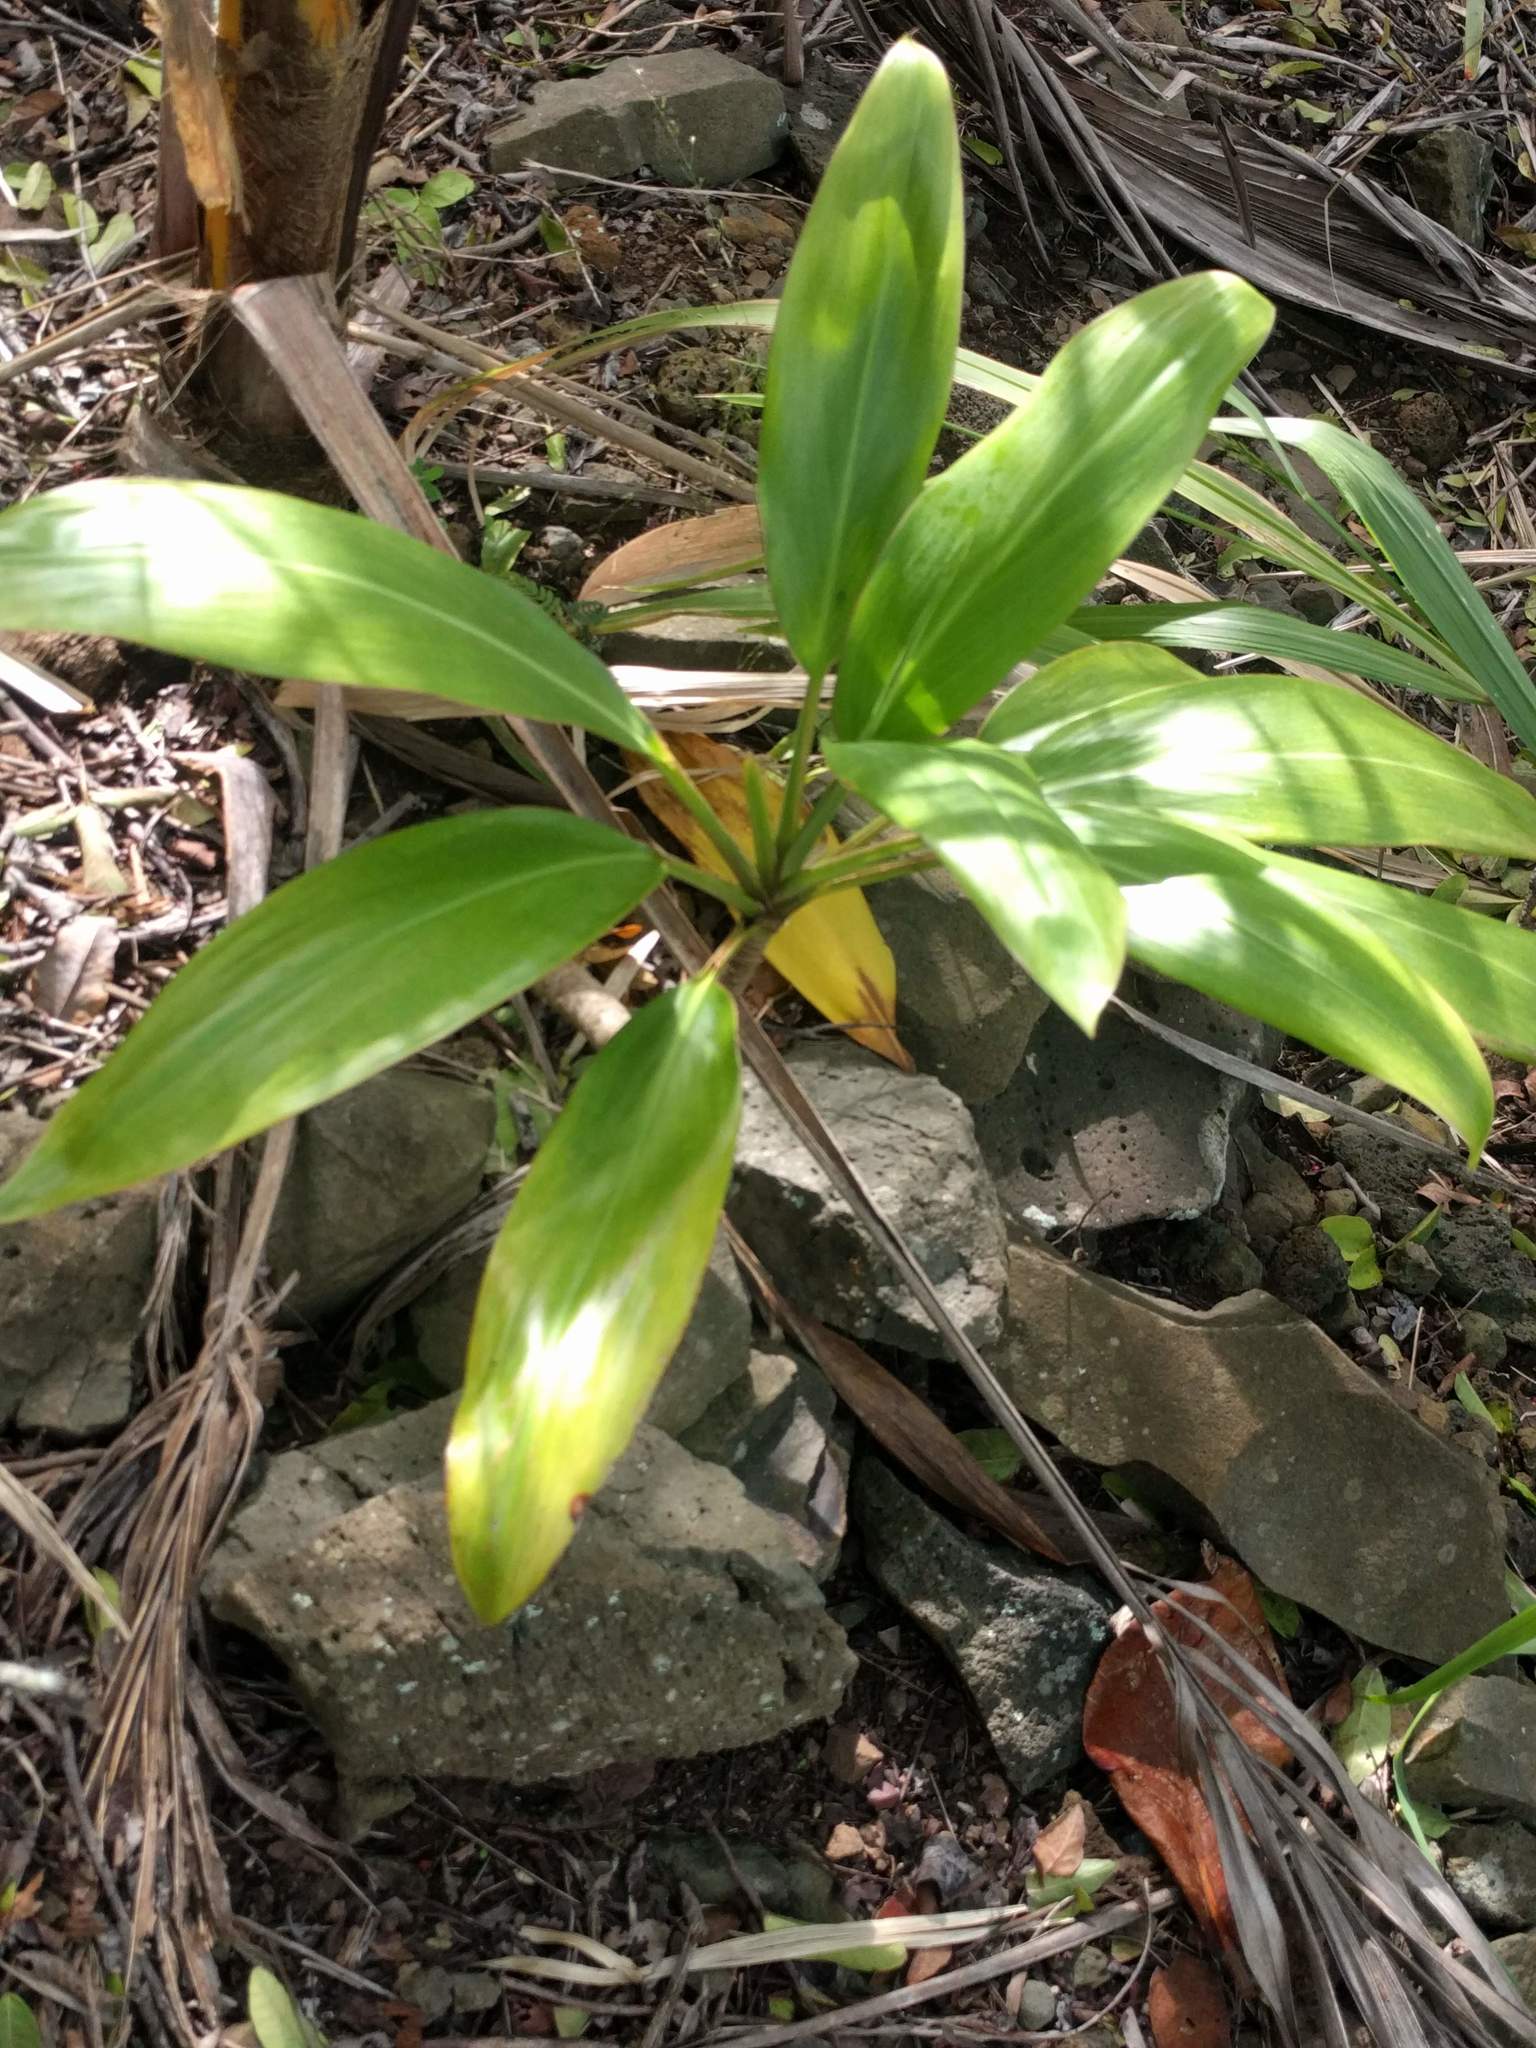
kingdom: Plantae
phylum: Tracheophyta
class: Liliopsida
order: Asparagales
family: Asparagaceae
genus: Cordyline
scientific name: Cordyline fruticosa
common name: Good-luck-plant
